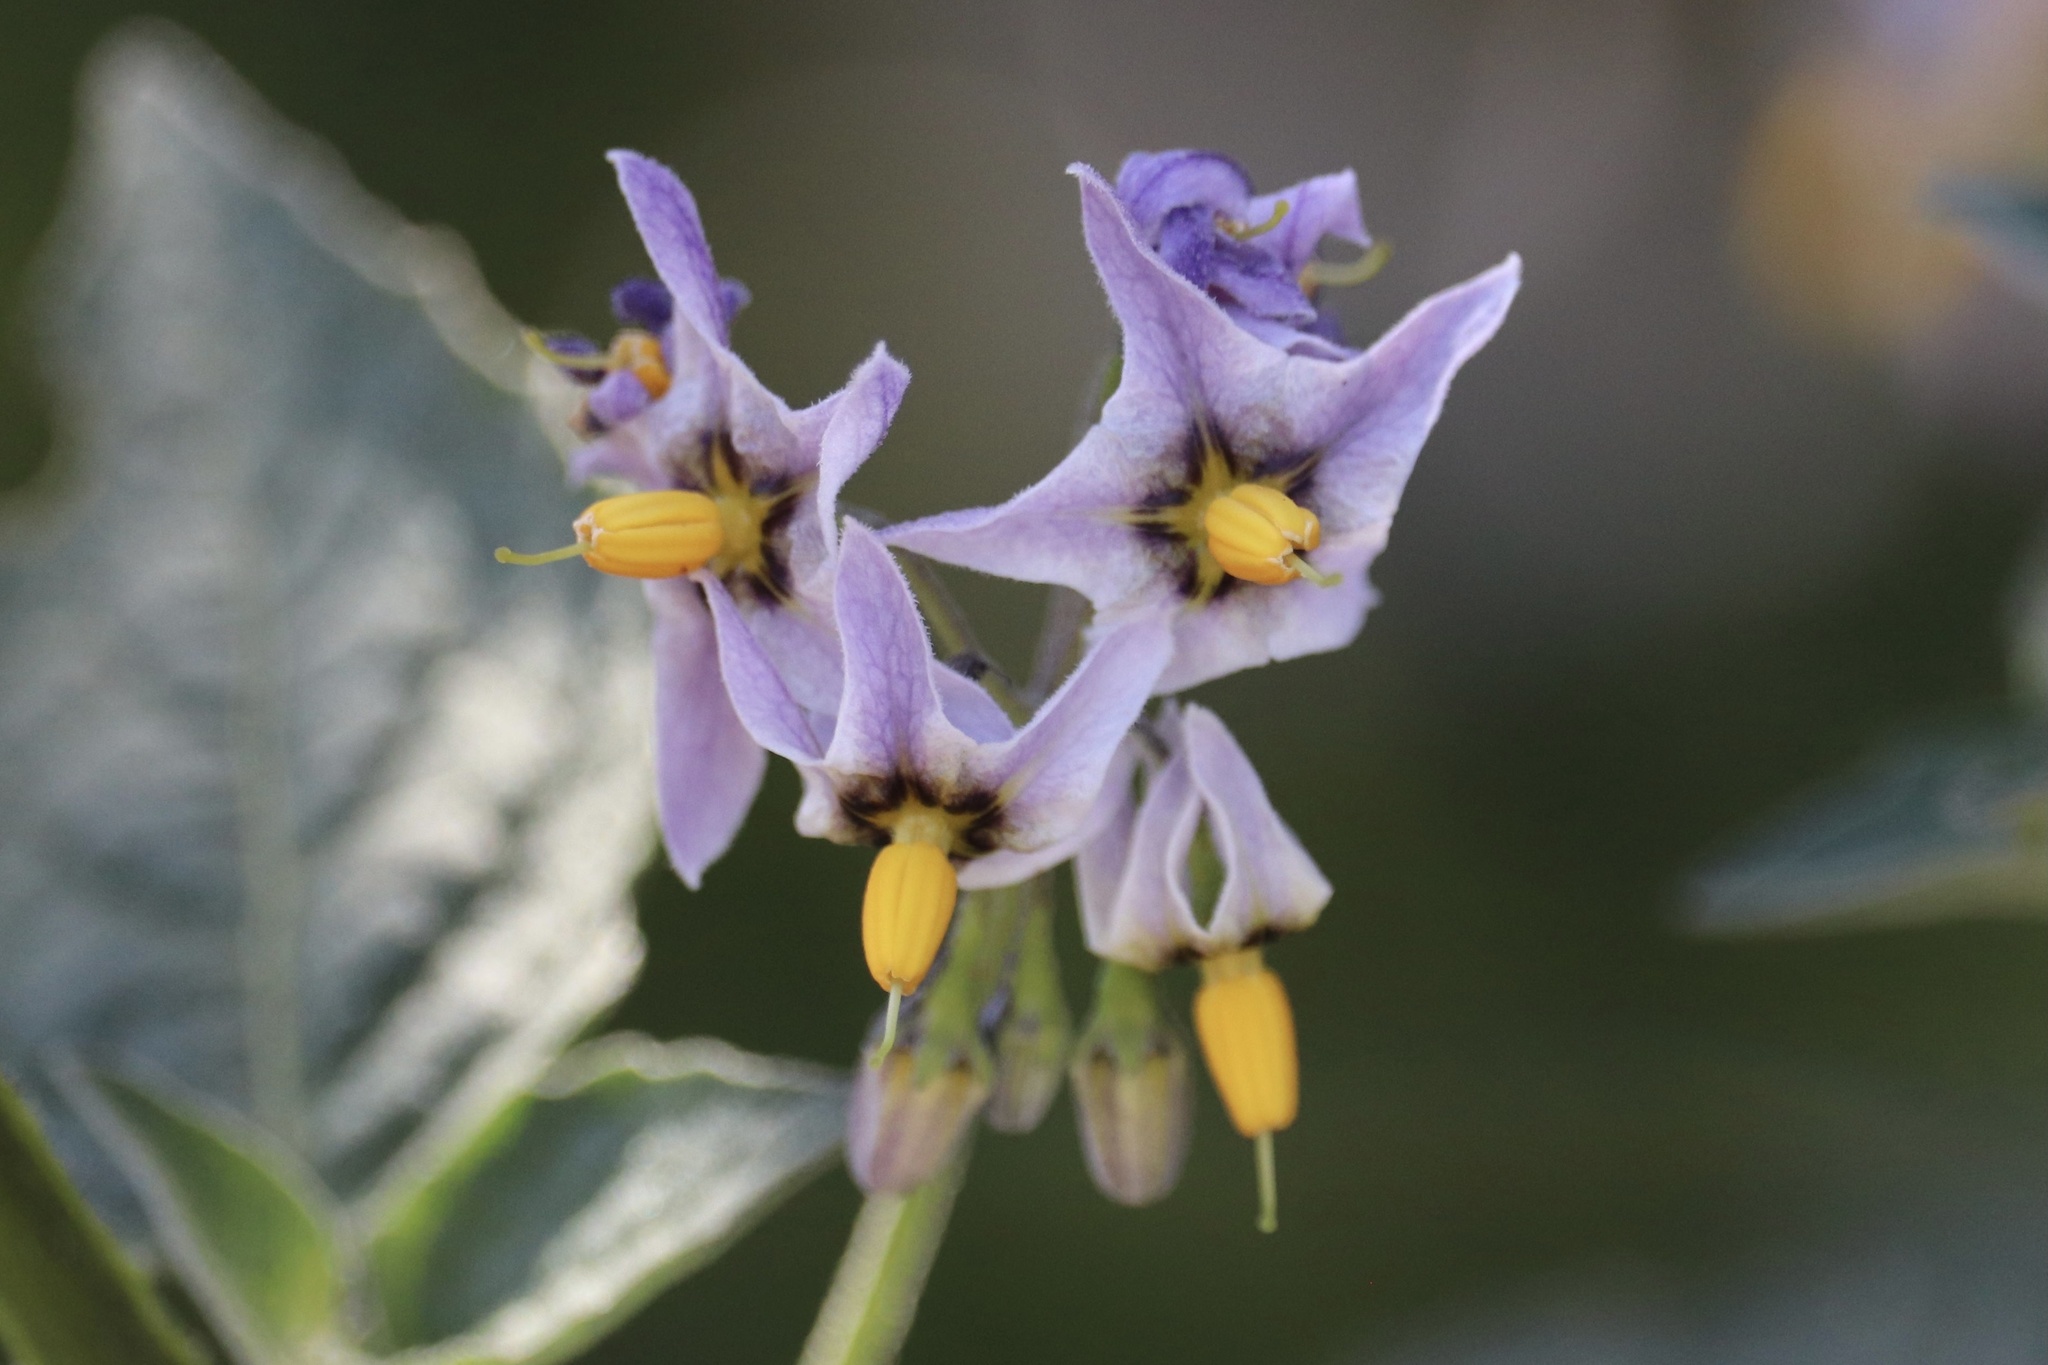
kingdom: Plantae
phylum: Tracheophyta
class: Magnoliopsida
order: Solanales
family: Solanaceae
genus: Solanum
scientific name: Solanum douglasii
